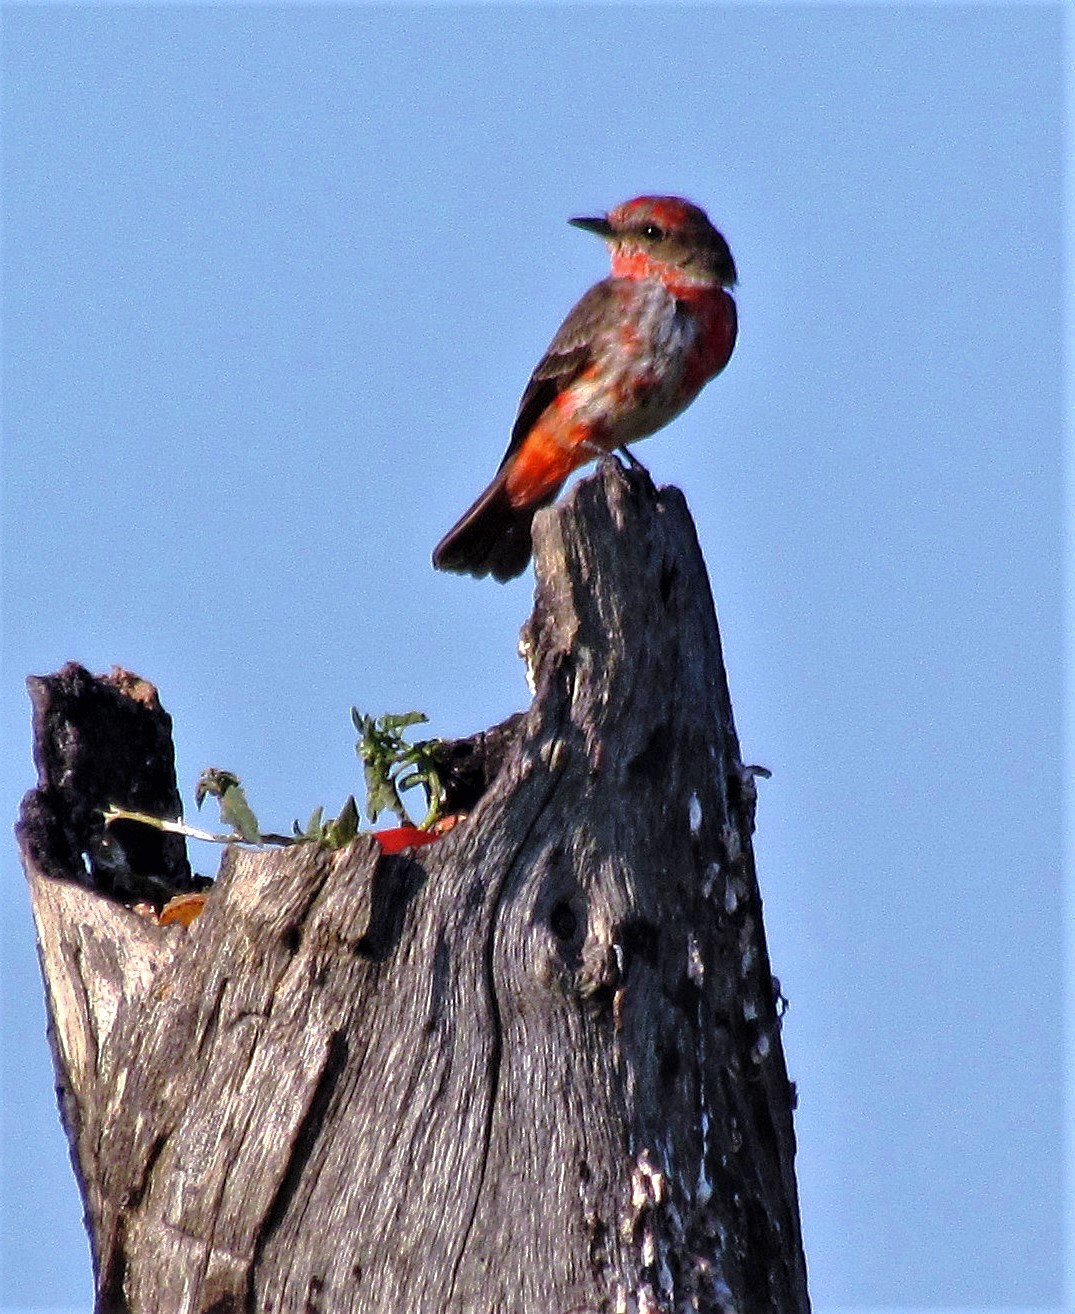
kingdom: Animalia
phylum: Chordata
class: Aves
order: Passeriformes
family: Tyrannidae
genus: Pyrocephalus
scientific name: Pyrocephalus rubinus
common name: Vermilion flycatcher
